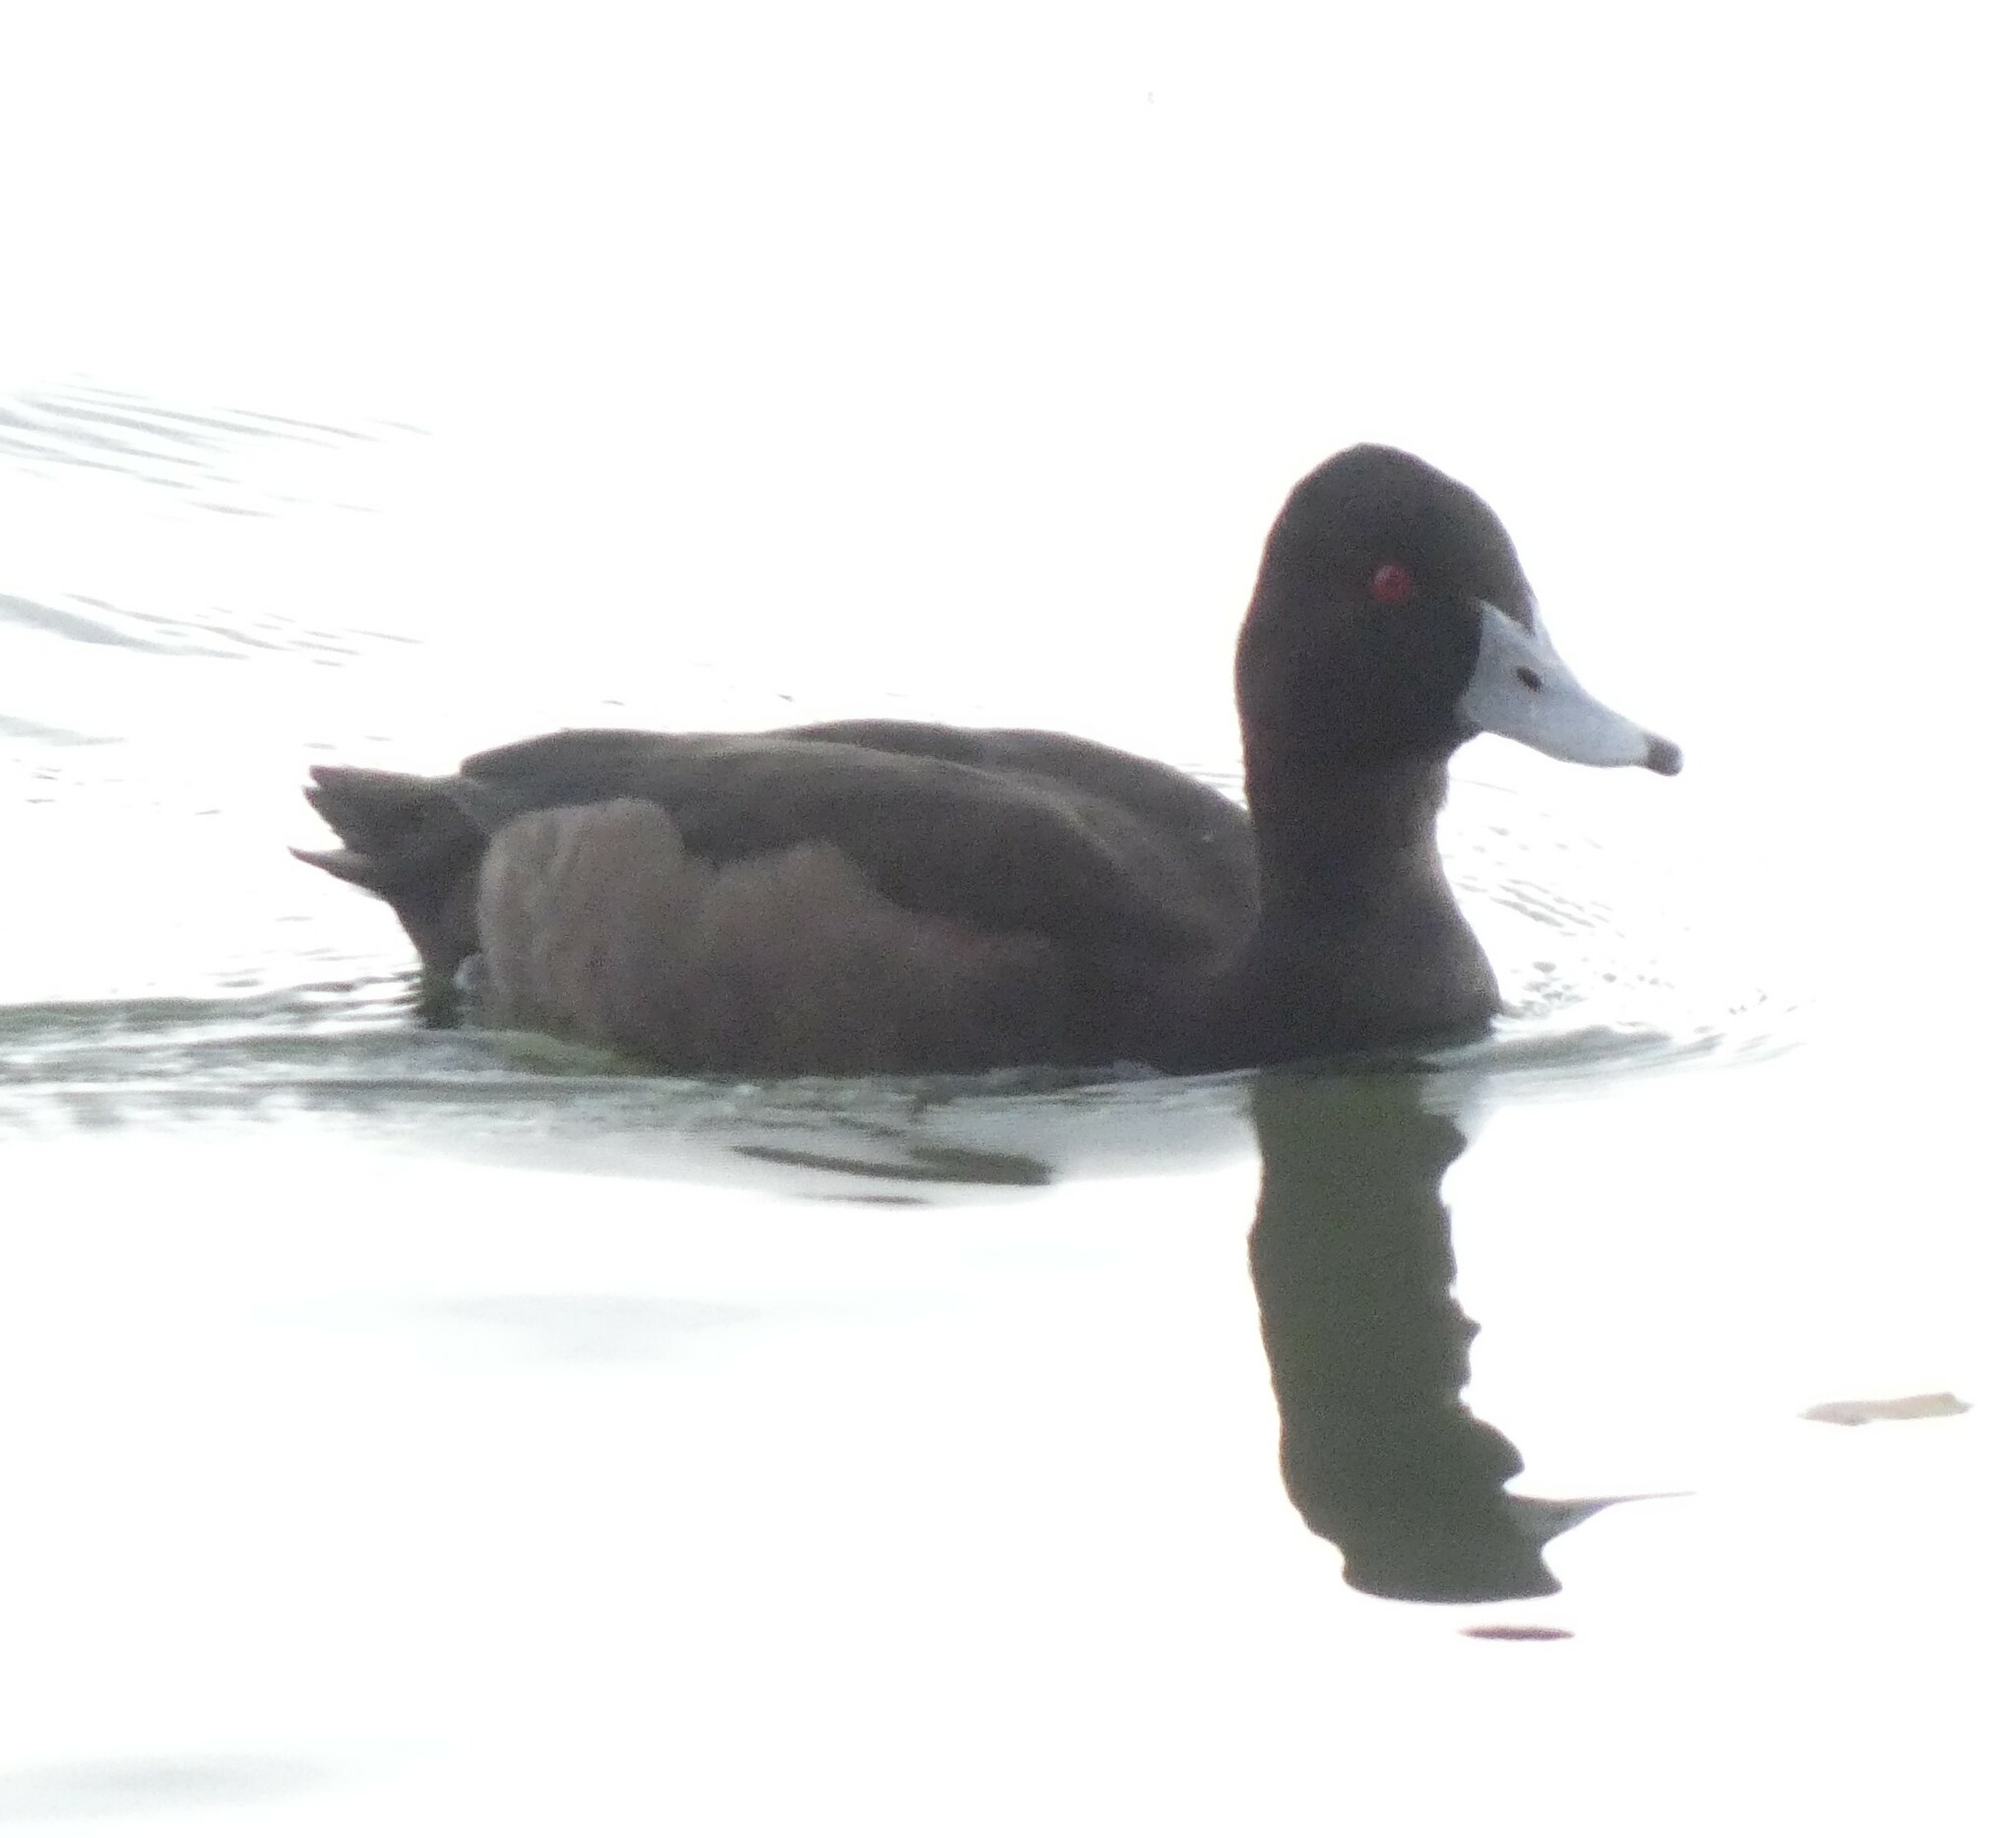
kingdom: Animalia
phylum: Chordata
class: Aves
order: Anseriformes
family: Anatidae
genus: Netta
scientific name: Netta erythrophthalma
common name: Southern pochard
